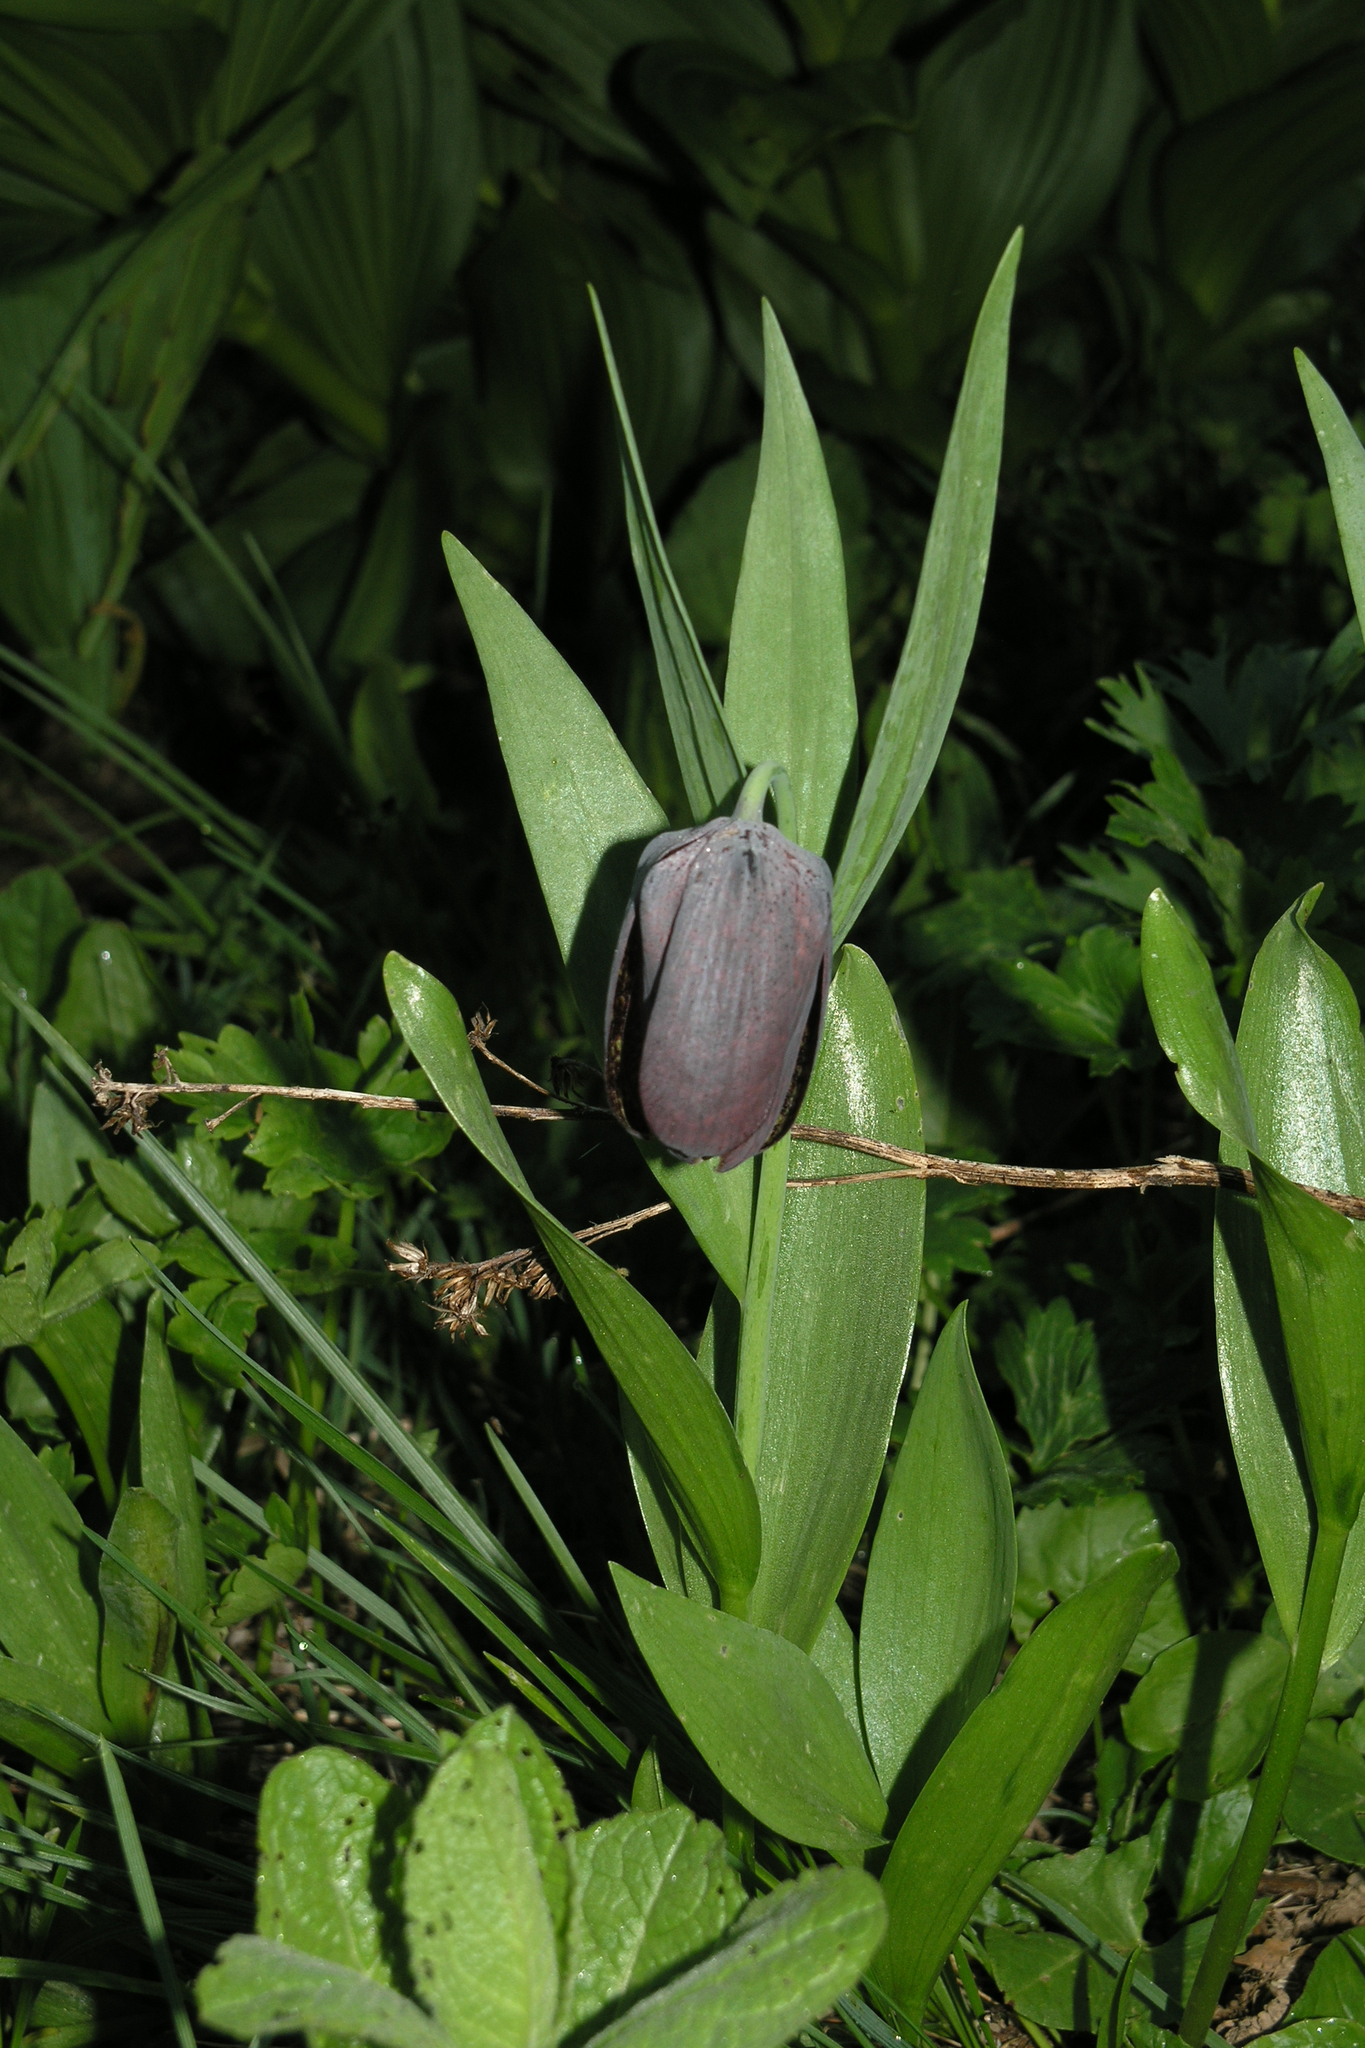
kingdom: Plantae
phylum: Tracheophyta
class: Liliopsida
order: Liliales
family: Liliaceae
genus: Fritillaria
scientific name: Fritillaria latifolia
